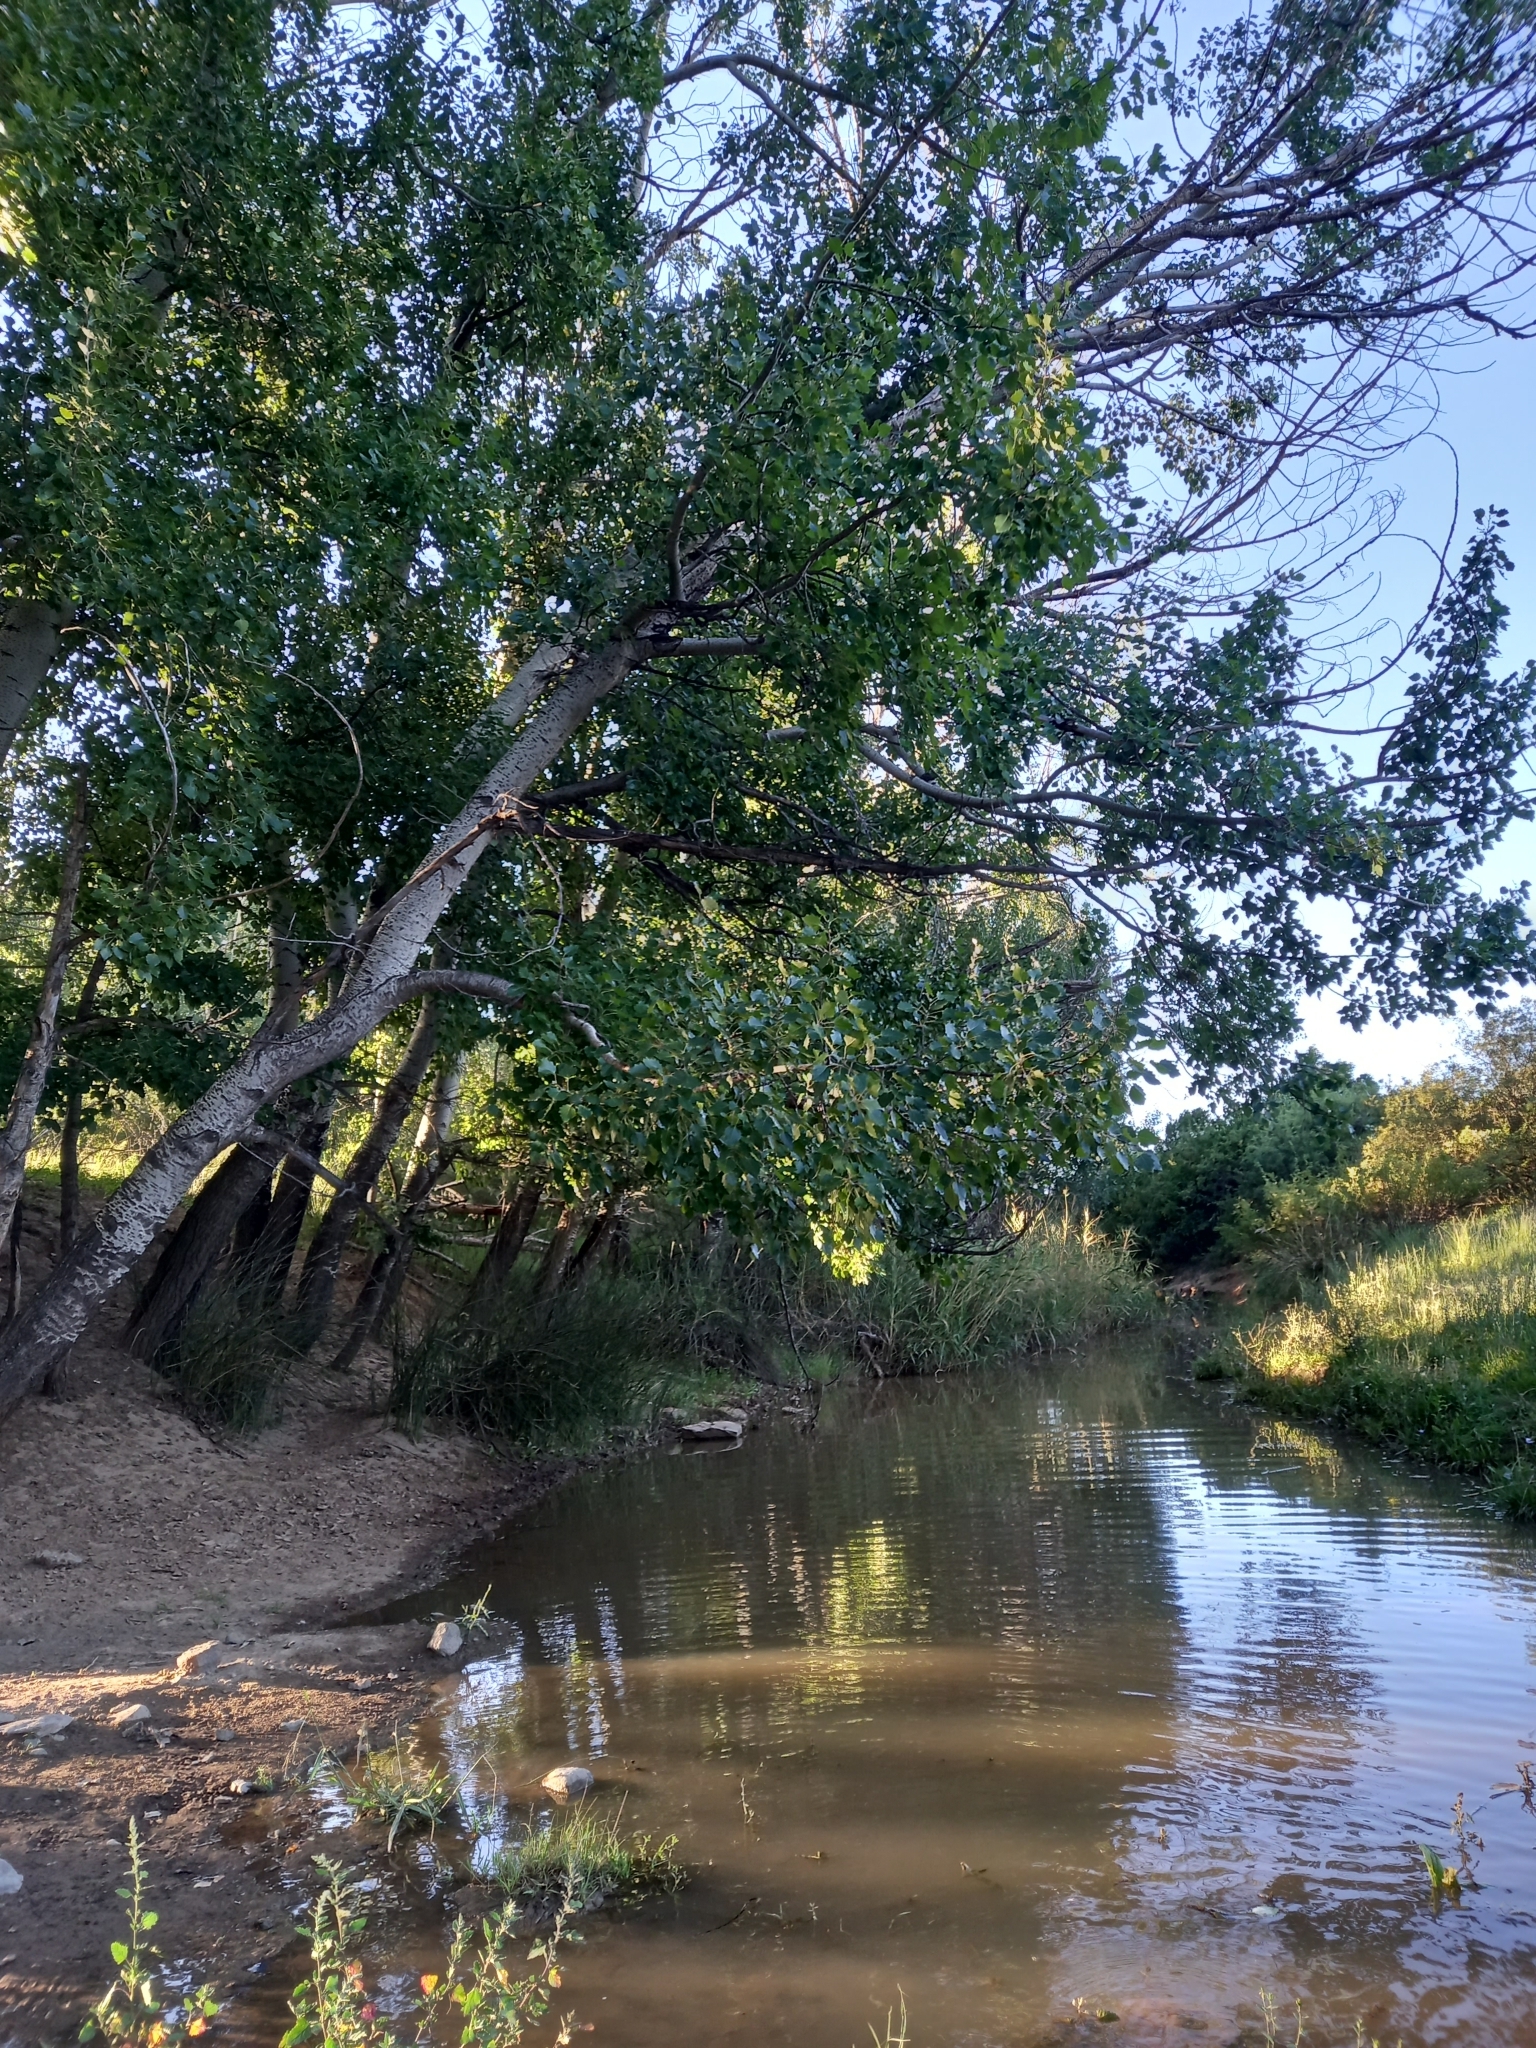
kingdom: Plantae
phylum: Tracheophyta
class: Magnoliopsida
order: Malpighiales
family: Salicaceae
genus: Populus
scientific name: Populus canescens
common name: Gray poplar
